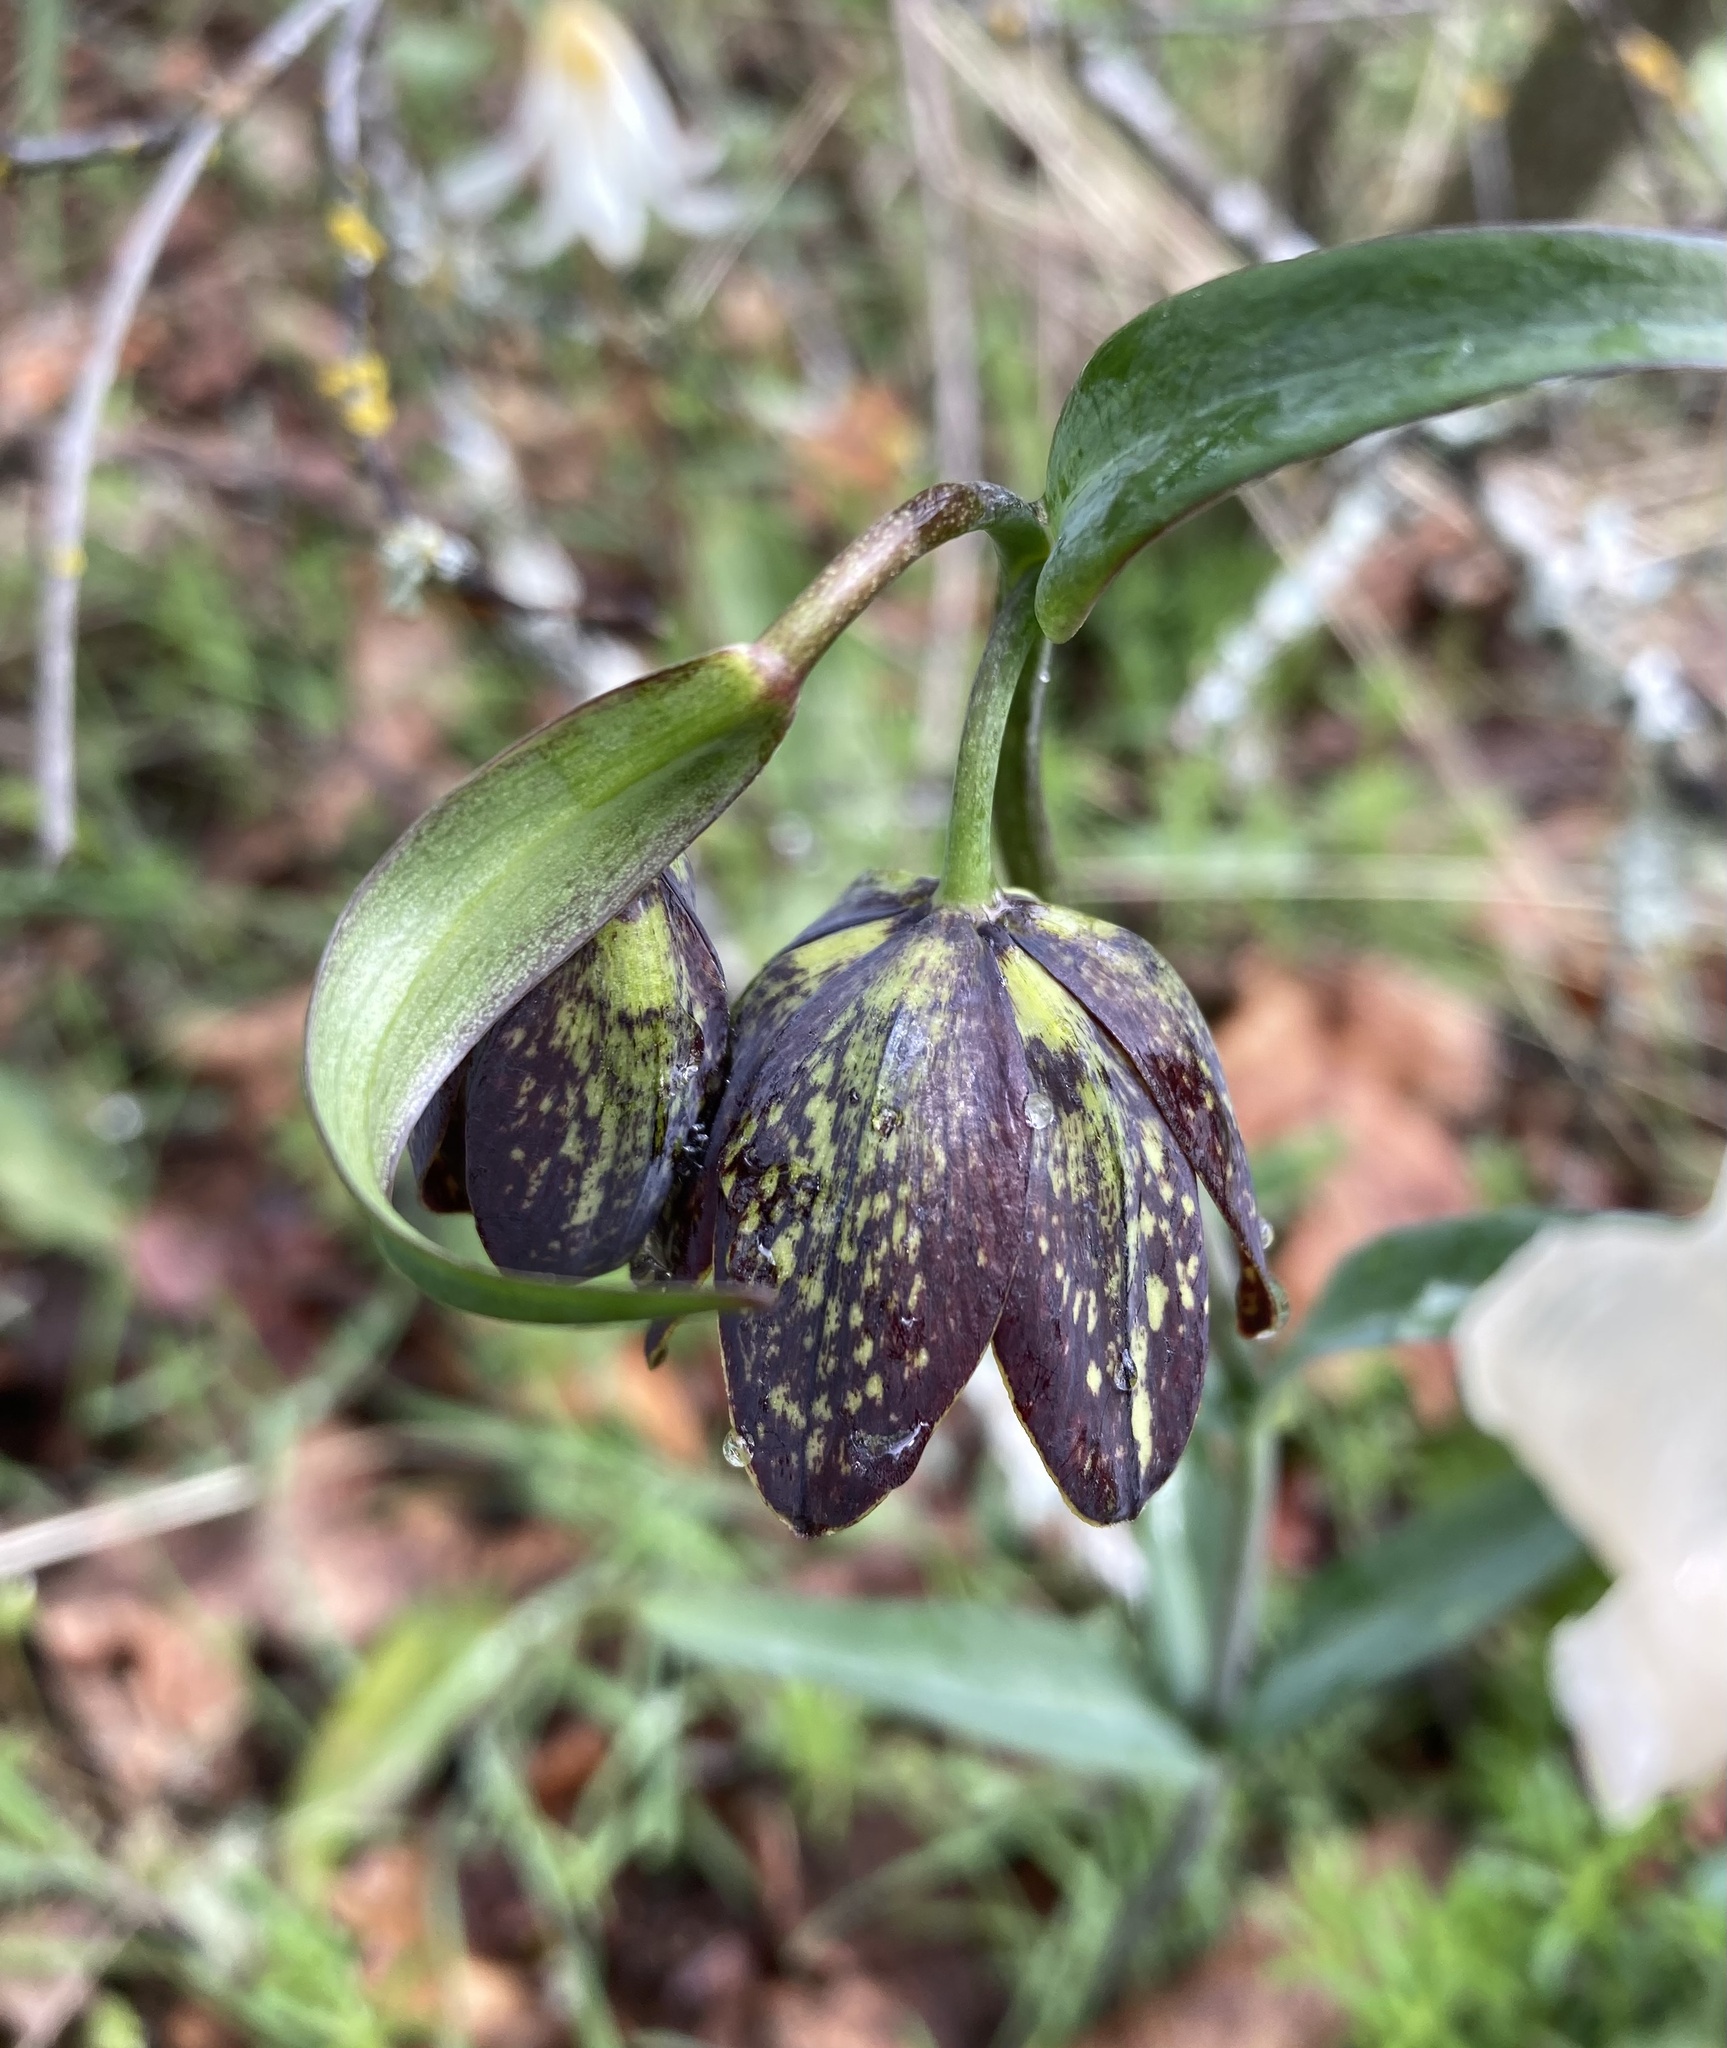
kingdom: Plantae
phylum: Tracheophyta
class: Liliopsida
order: Liliales
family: Liliaceae
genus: Fritillaria
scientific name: Fritillaria affinis
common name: Ojai fritillary
